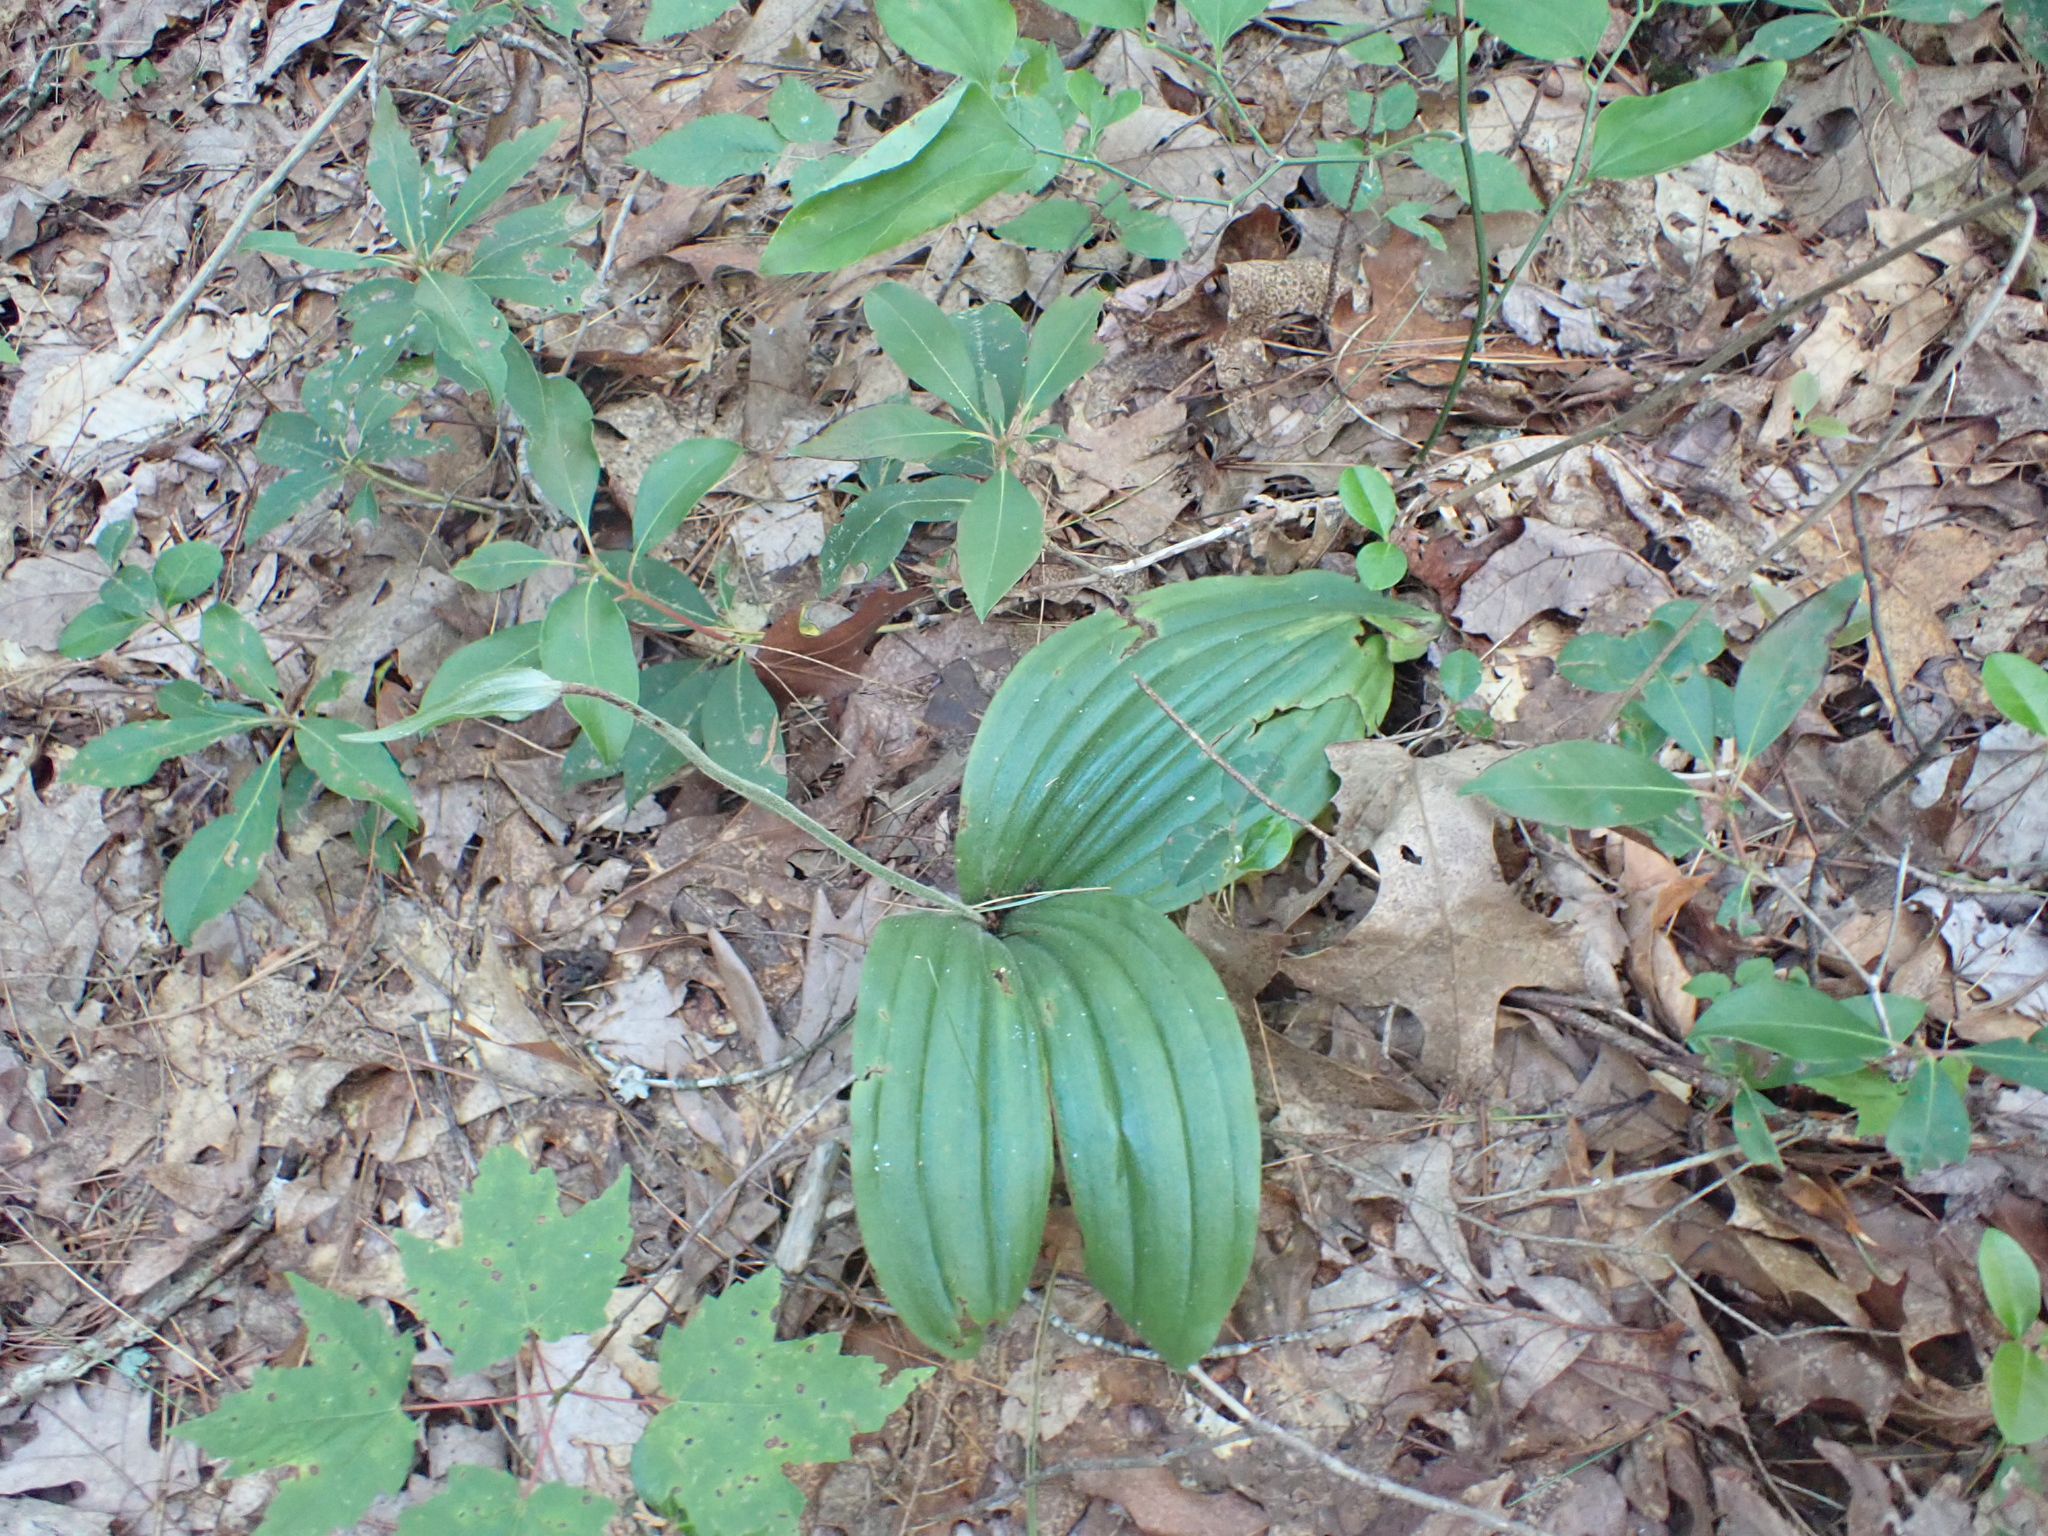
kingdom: Plantae
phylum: Tracheophyta
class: Liliopsida
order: Asparagales
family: Orchidaceae
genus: Cypripedium
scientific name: Cypripedium acaule
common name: Pink lady's-slipper
